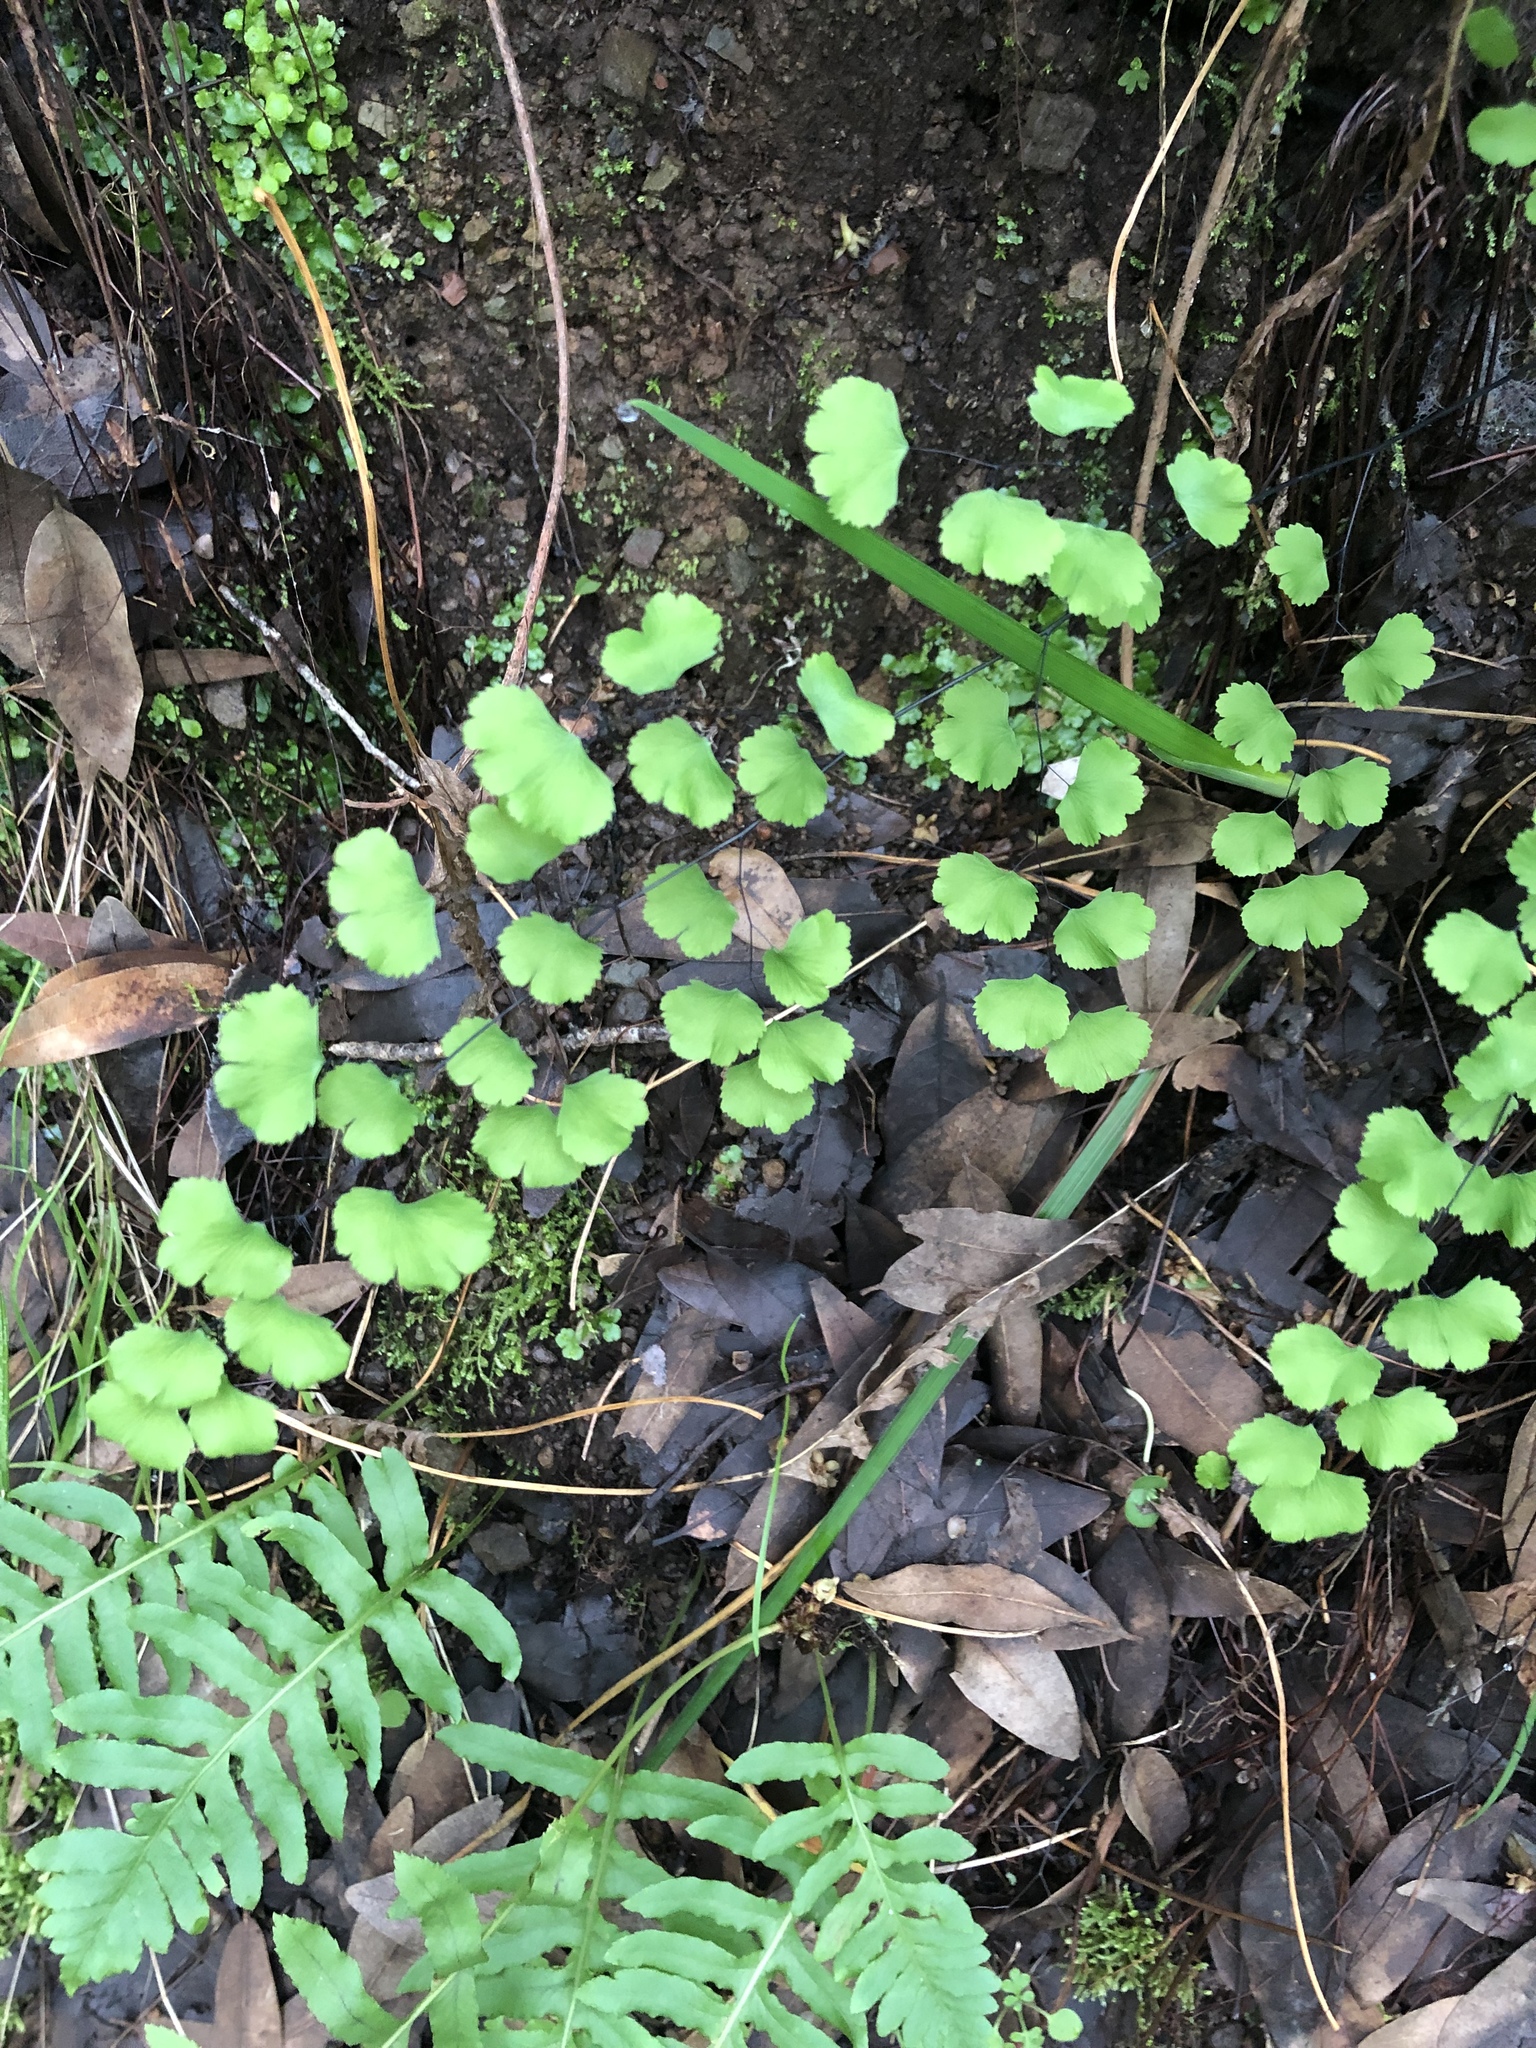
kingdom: Plantae
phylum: Tracheophyta
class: Polypodiopsida
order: Polypodiales
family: Pteridaceae
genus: Adiantum
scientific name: Adiantum jordanii
